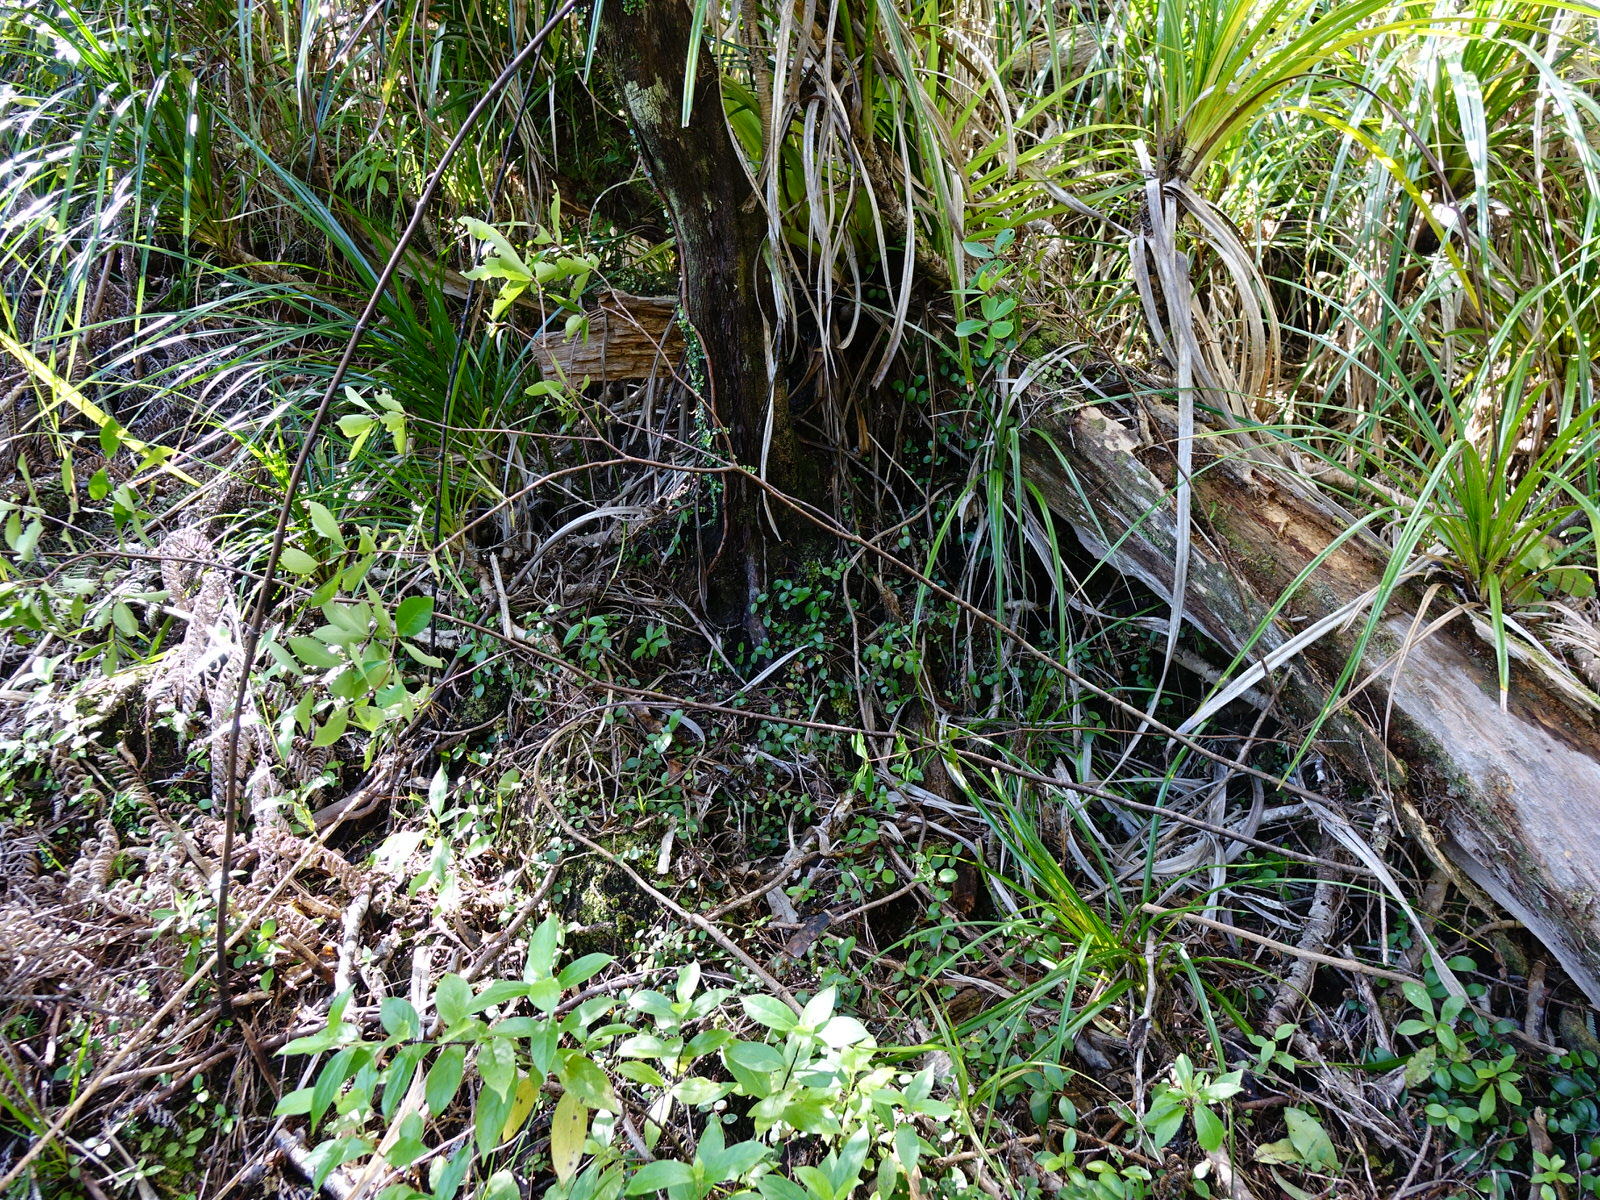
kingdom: Plantae
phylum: Tracheophyta
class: Magnoliopsida
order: Apiales
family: Pittosporaceae
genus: Pittosporum
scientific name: Pittosporum cornifolium
